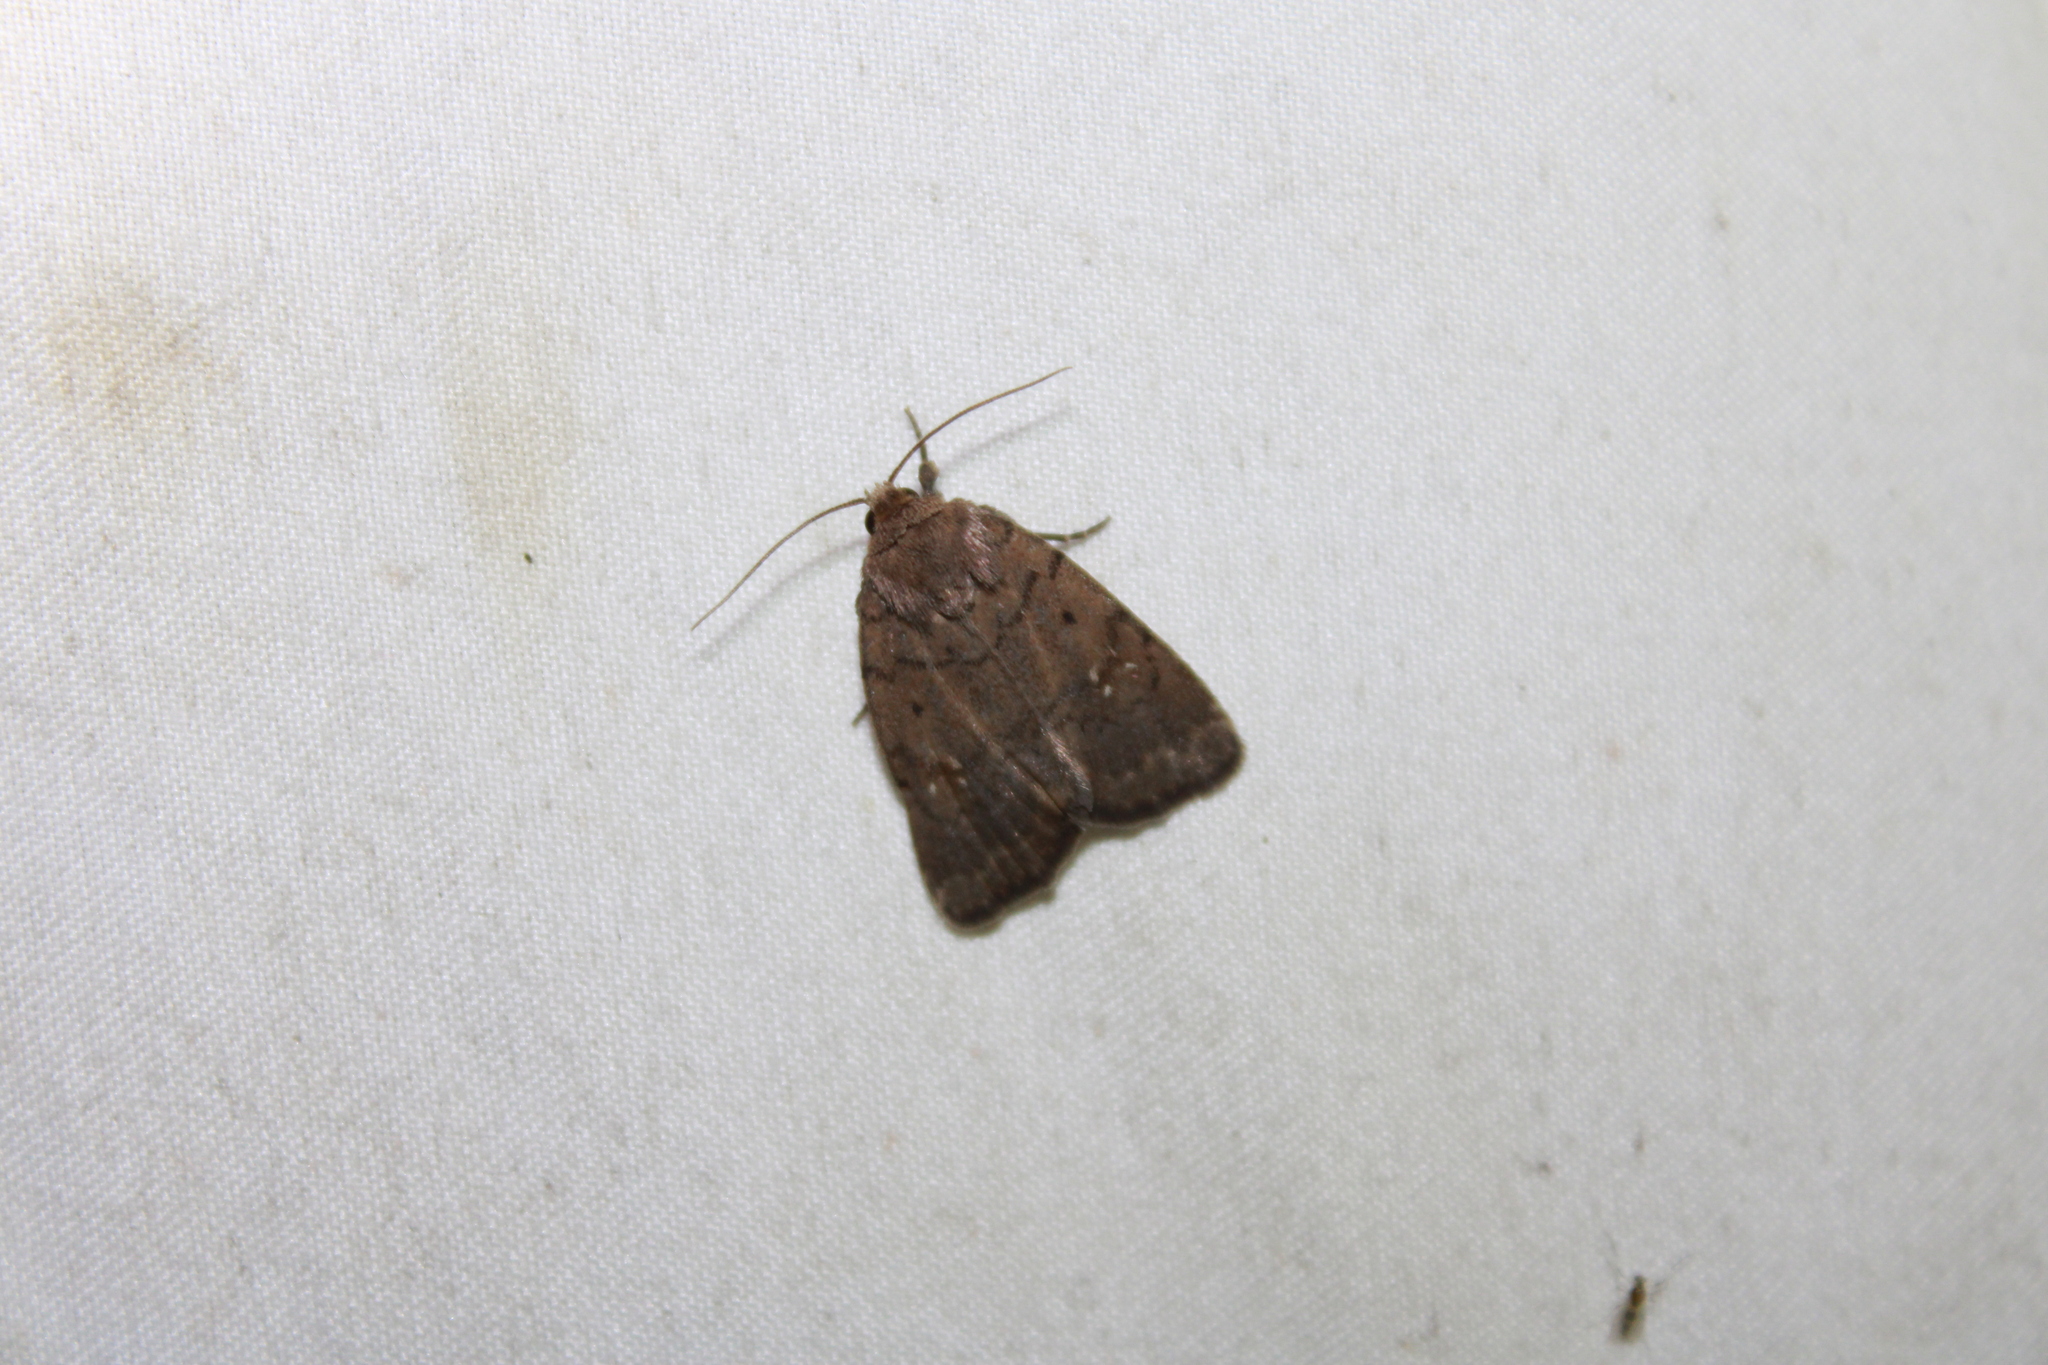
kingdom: Animalia
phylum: Arthropoda
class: Insecta
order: Lepidoptera
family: Noctuidae
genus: Athetis
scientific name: Athetis tarda
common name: Slowpoke moth
